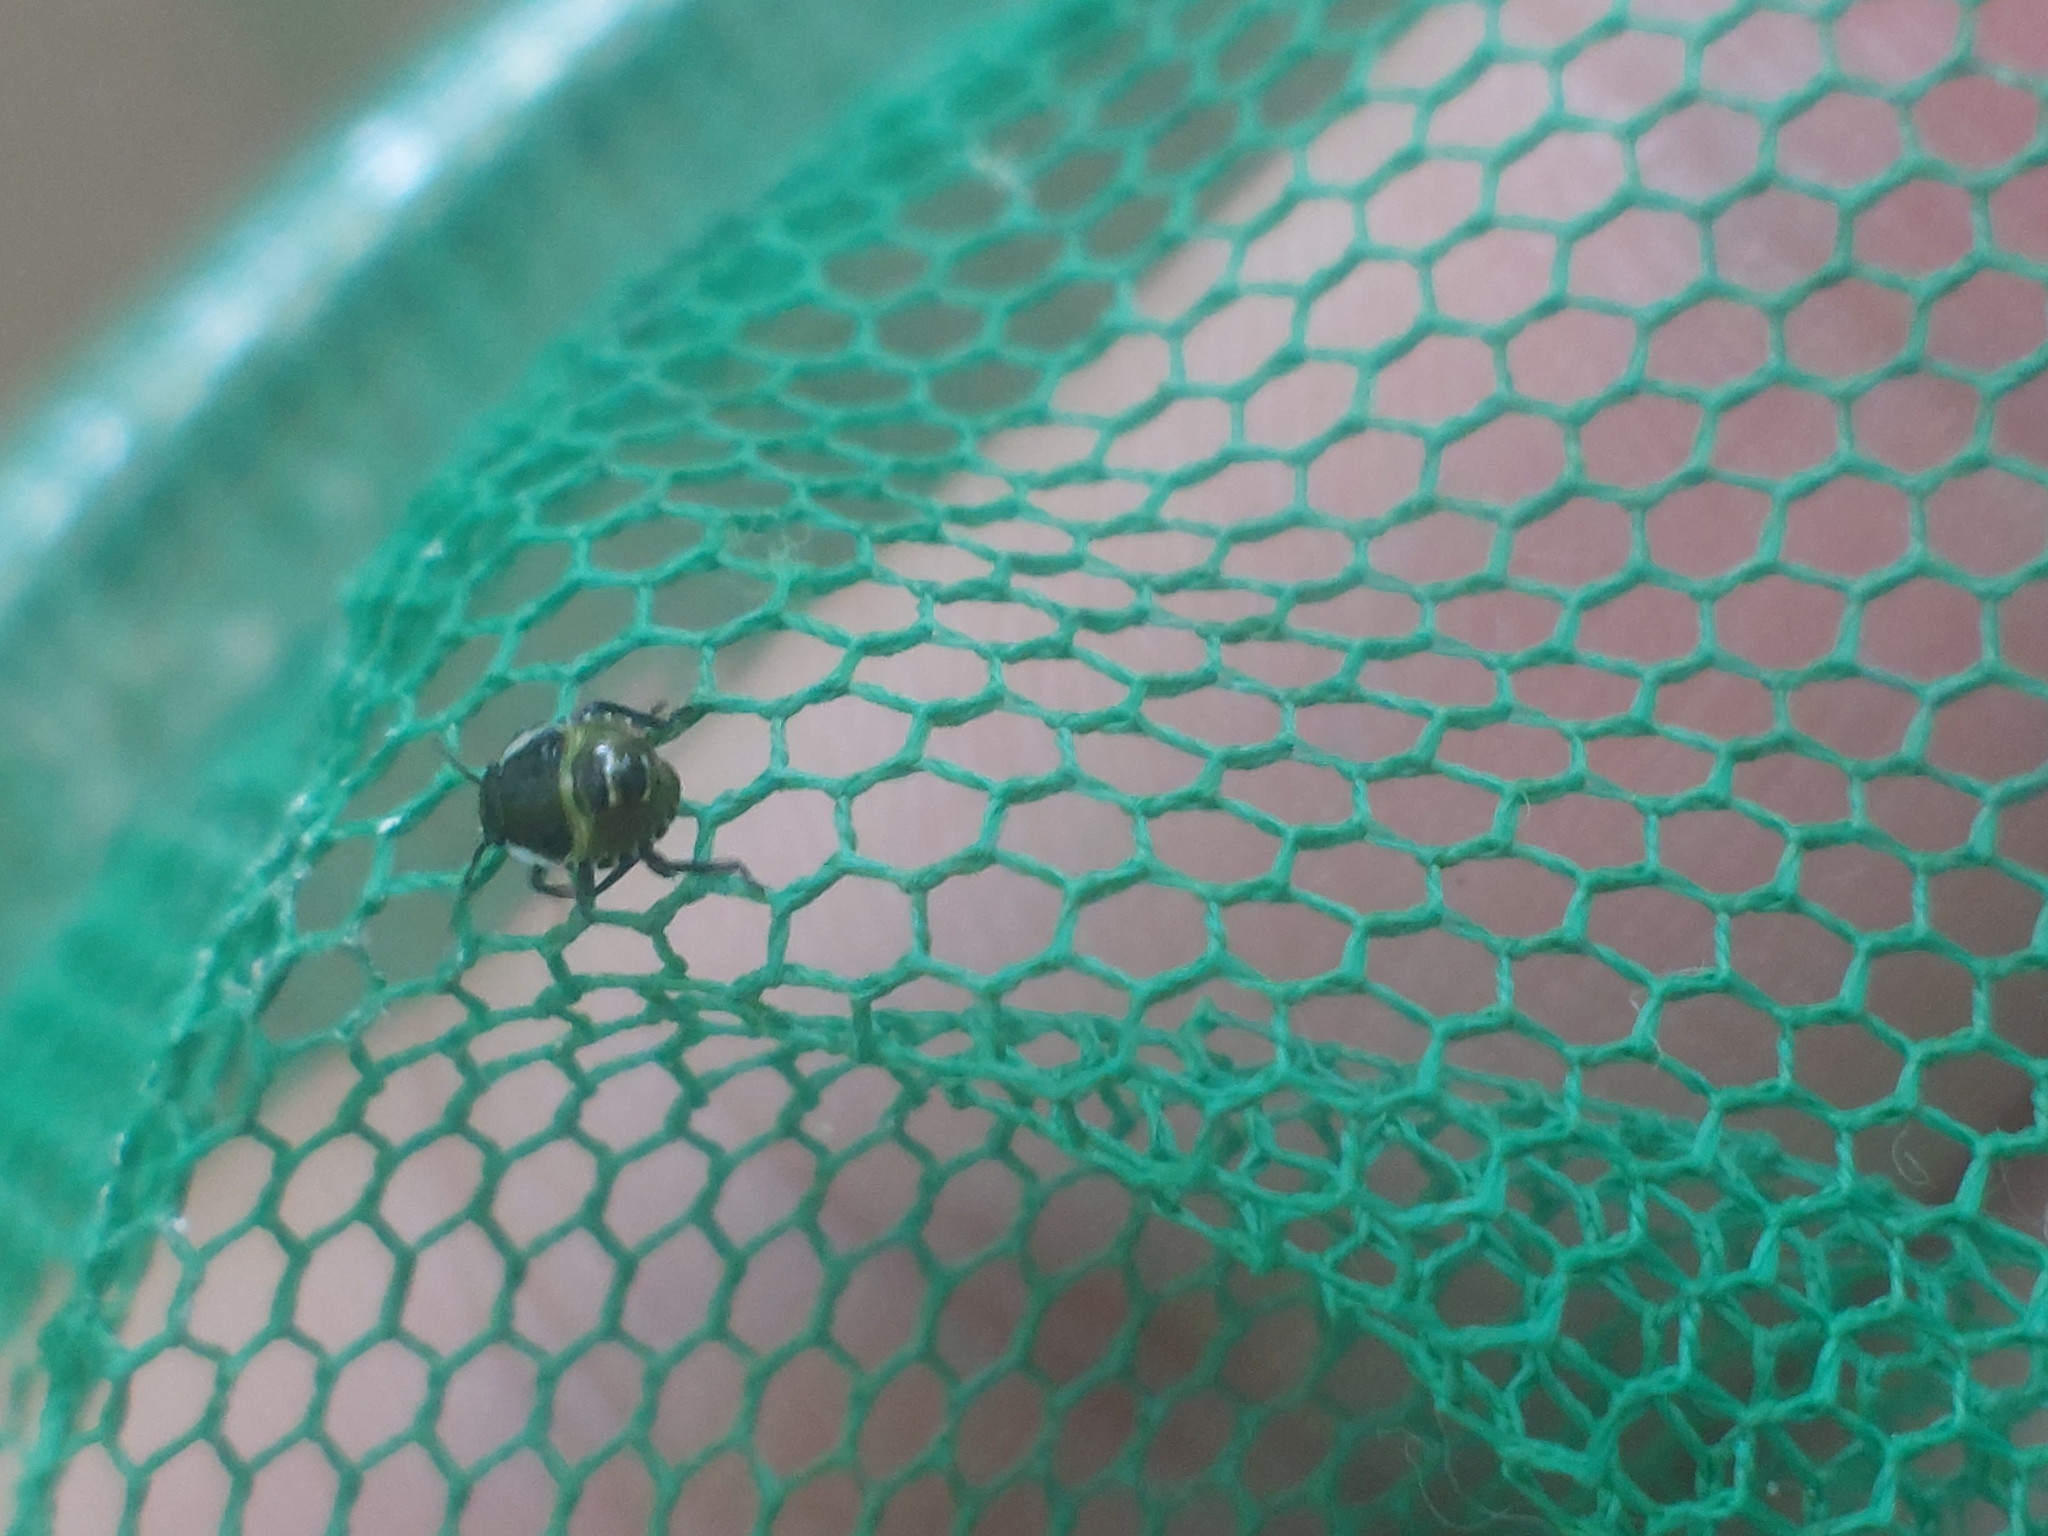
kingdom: Animalia
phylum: Arthropoda
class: Insecta
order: Hemiptera
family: Pentatomidae
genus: Palomena
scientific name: Palomena prasina
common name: Green shieldbug
